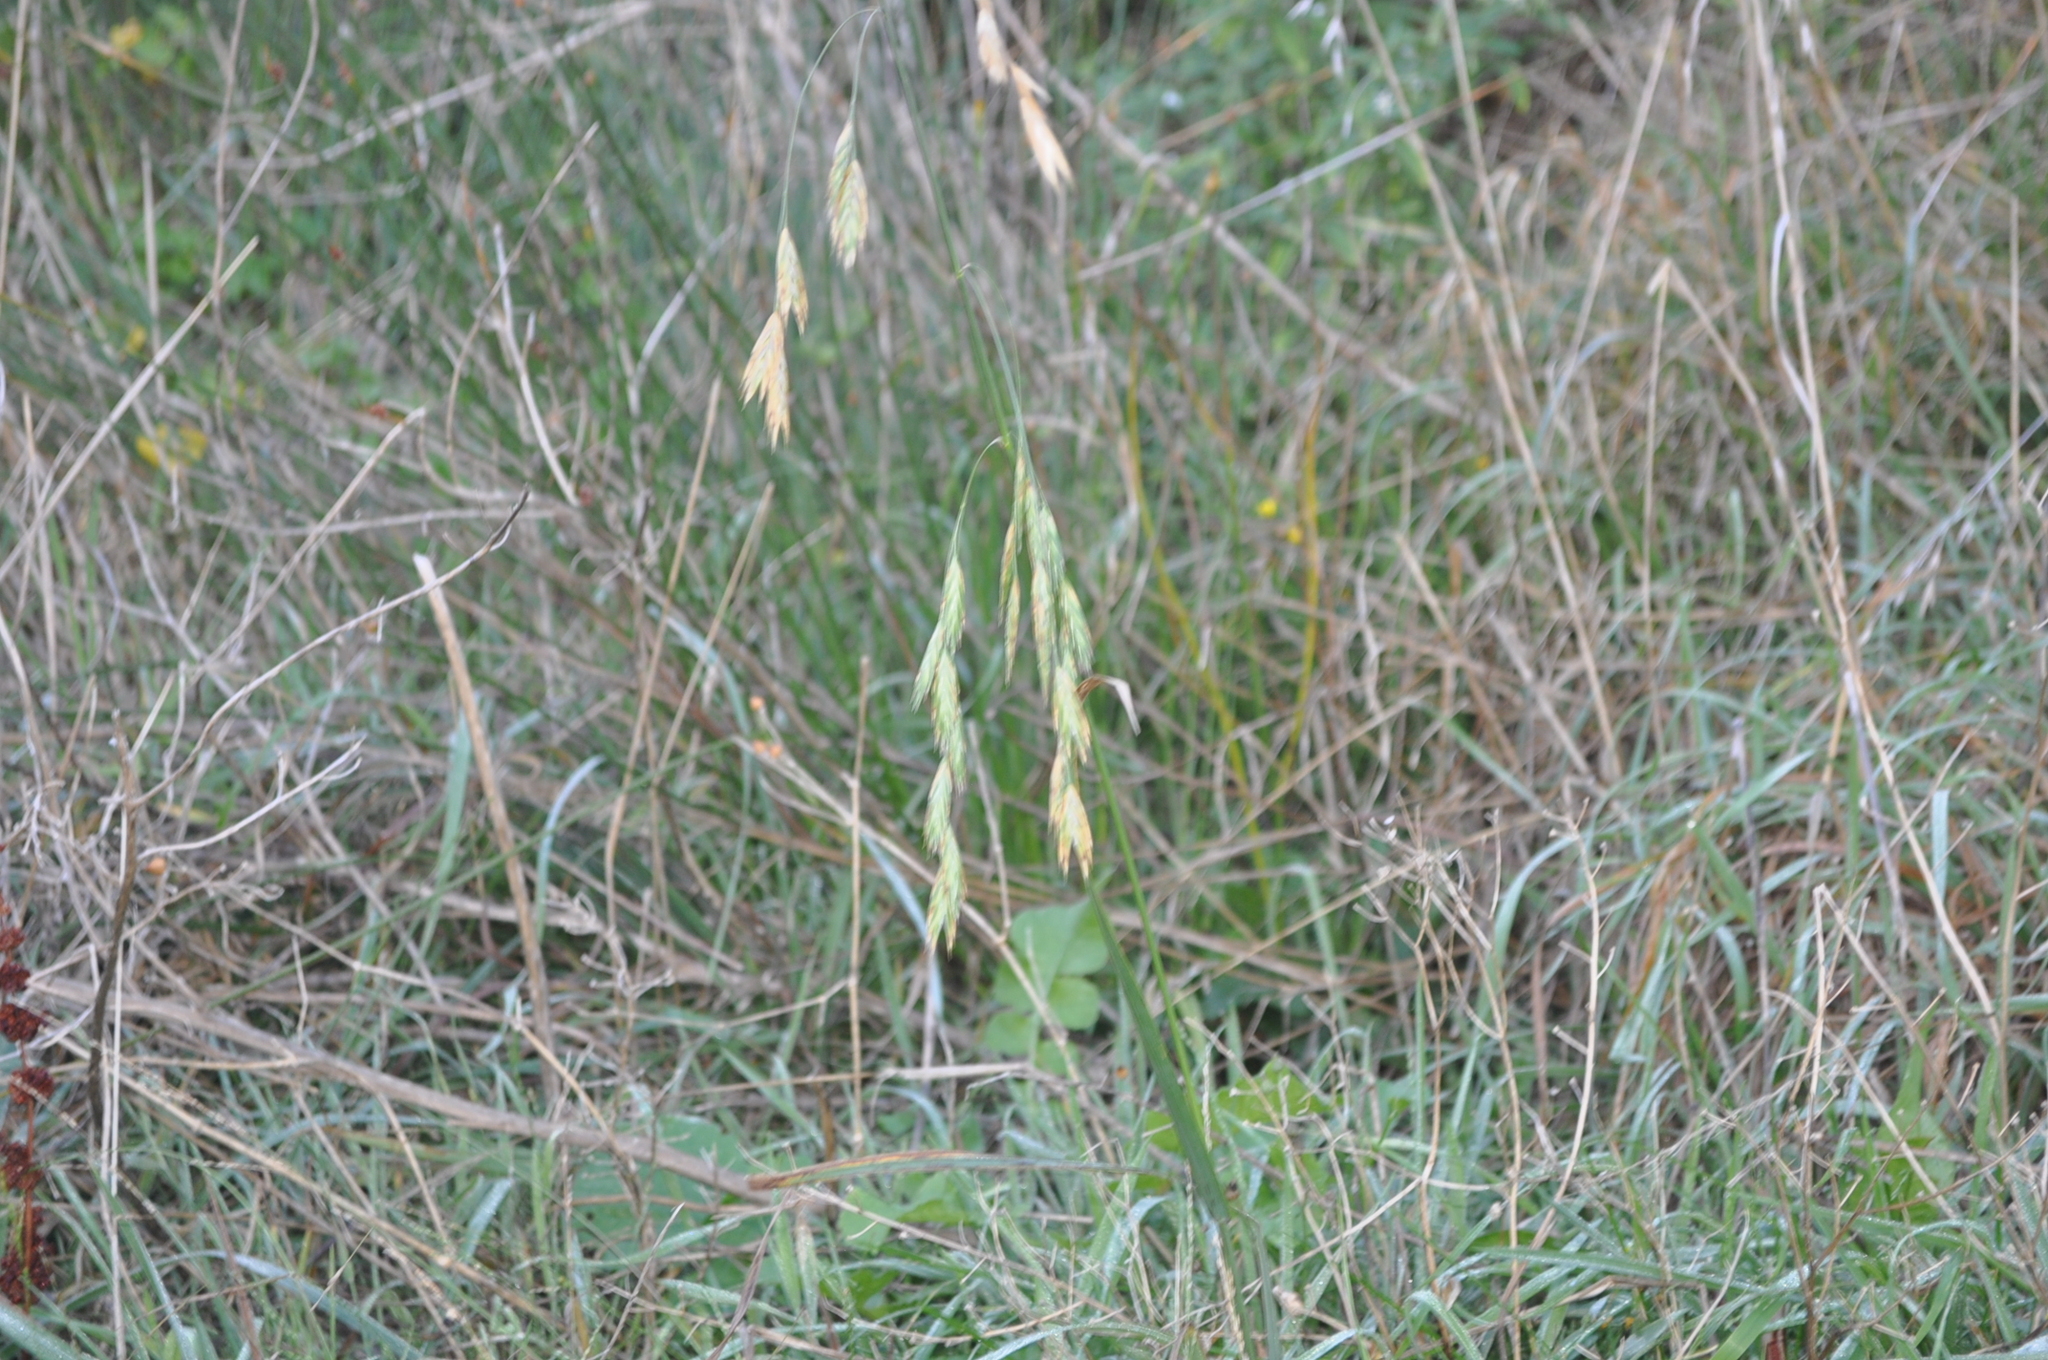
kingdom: Plantae
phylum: Tracheophyta
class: Liliopsida
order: Poales
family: Poaceae
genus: Bromus
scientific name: Bromus catharticus
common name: Rescuegrass
